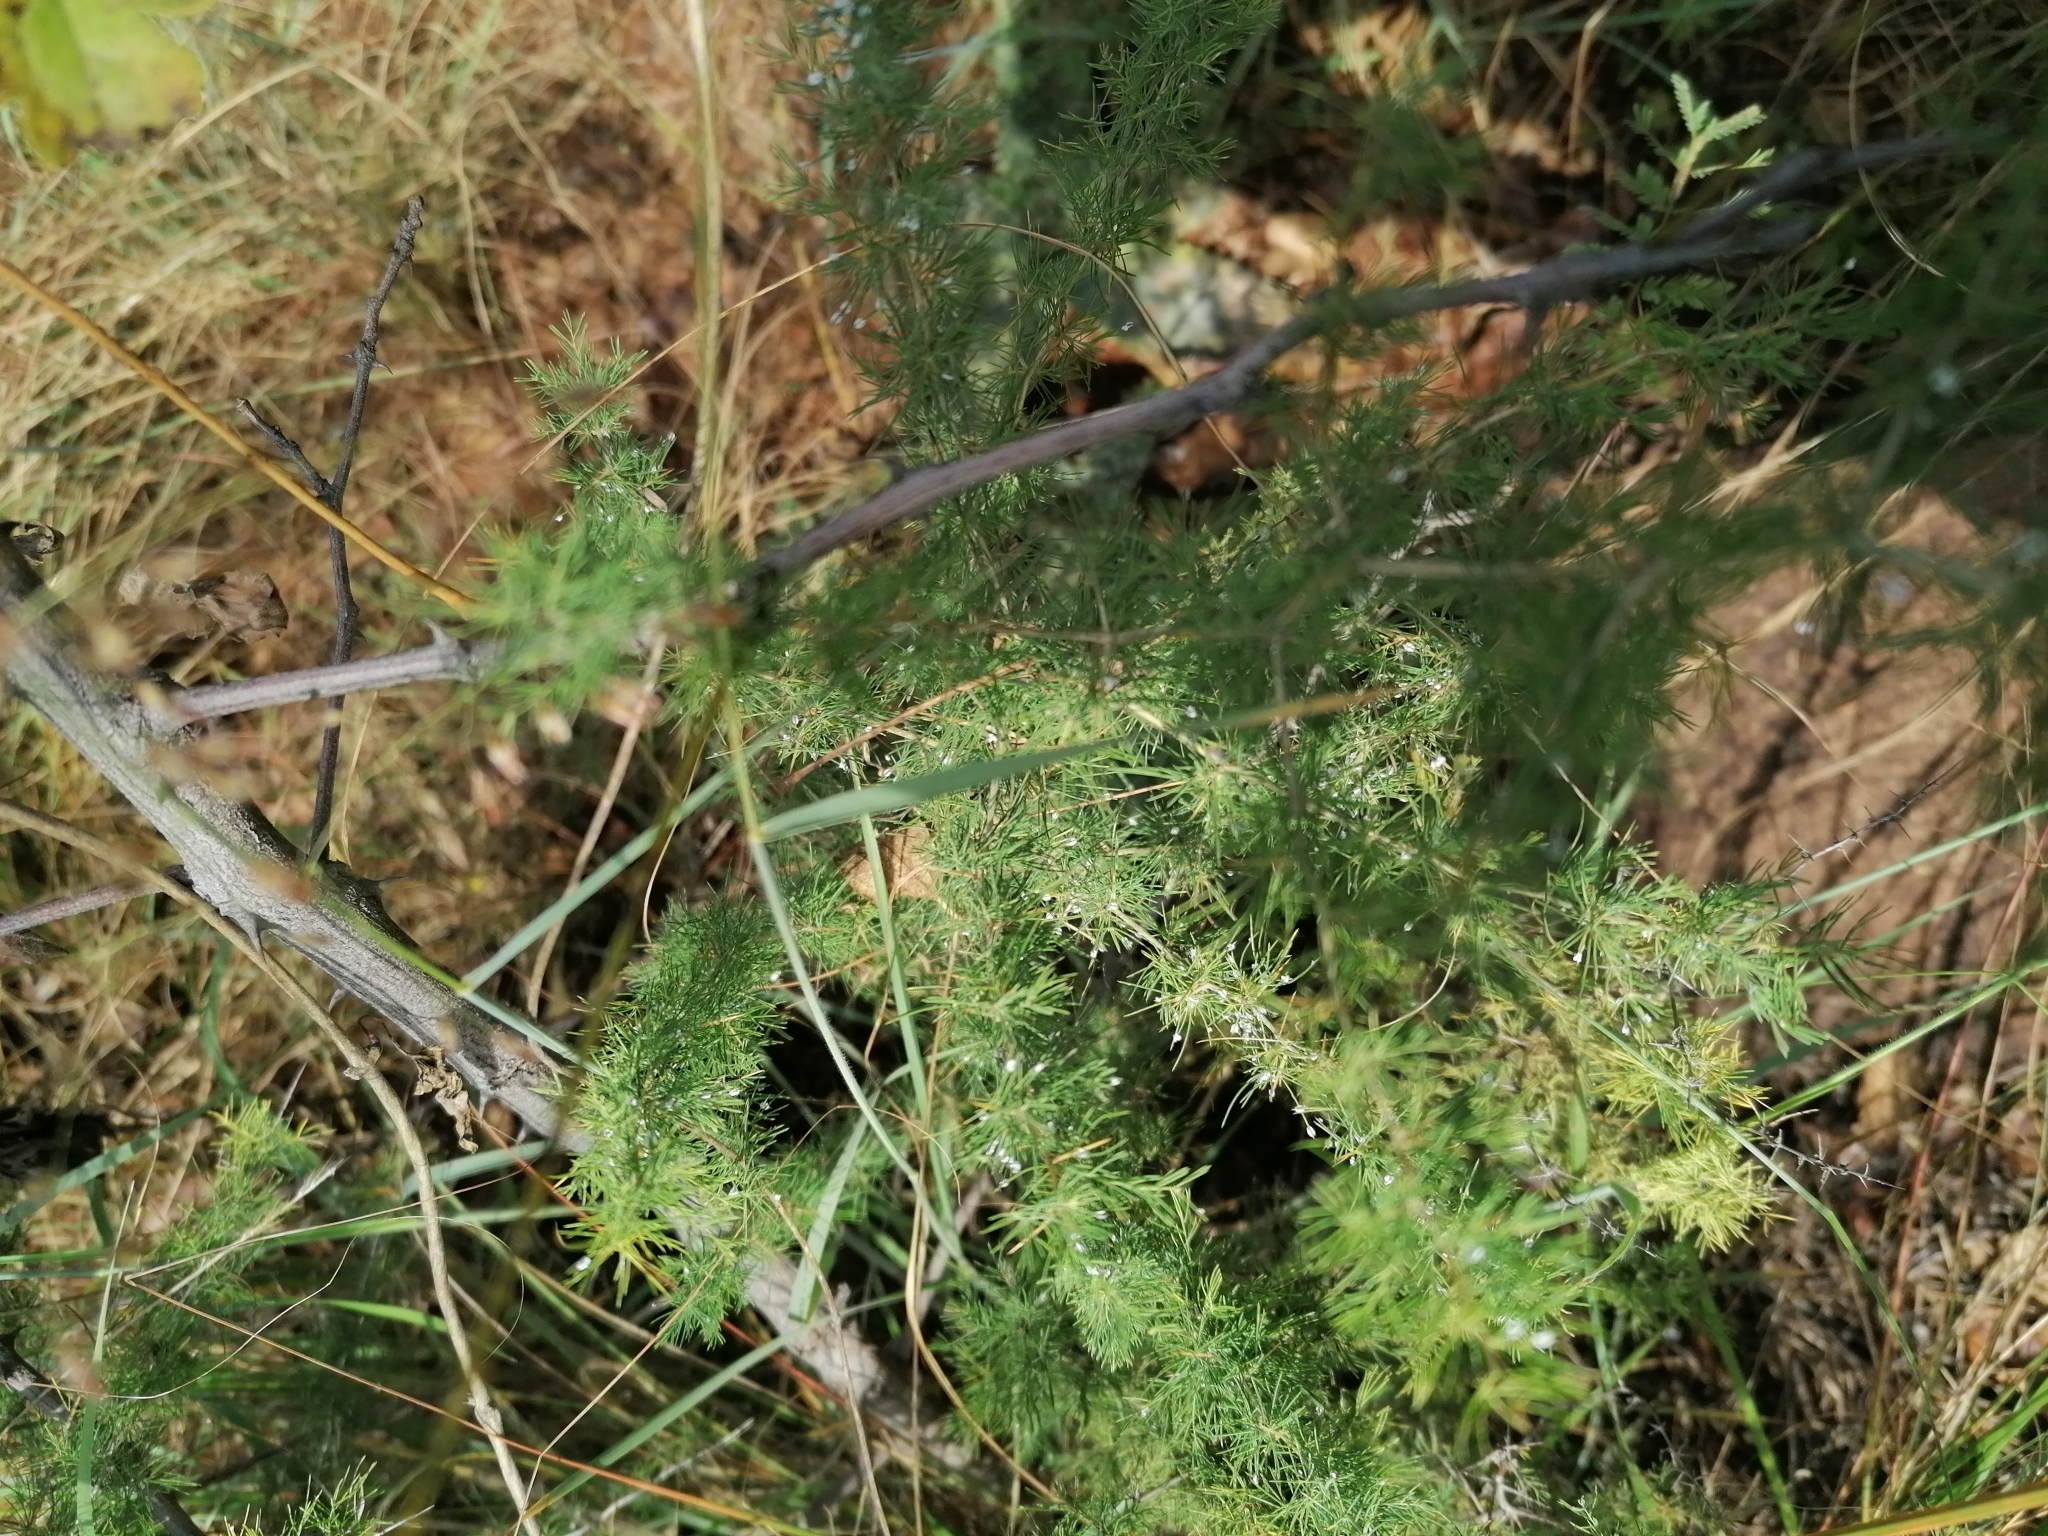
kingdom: Plantae
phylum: Tracheophyta
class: Liliopsida
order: Asparagales
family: Asparagaceae
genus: Asparagus
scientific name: Asparagus suaveolens
